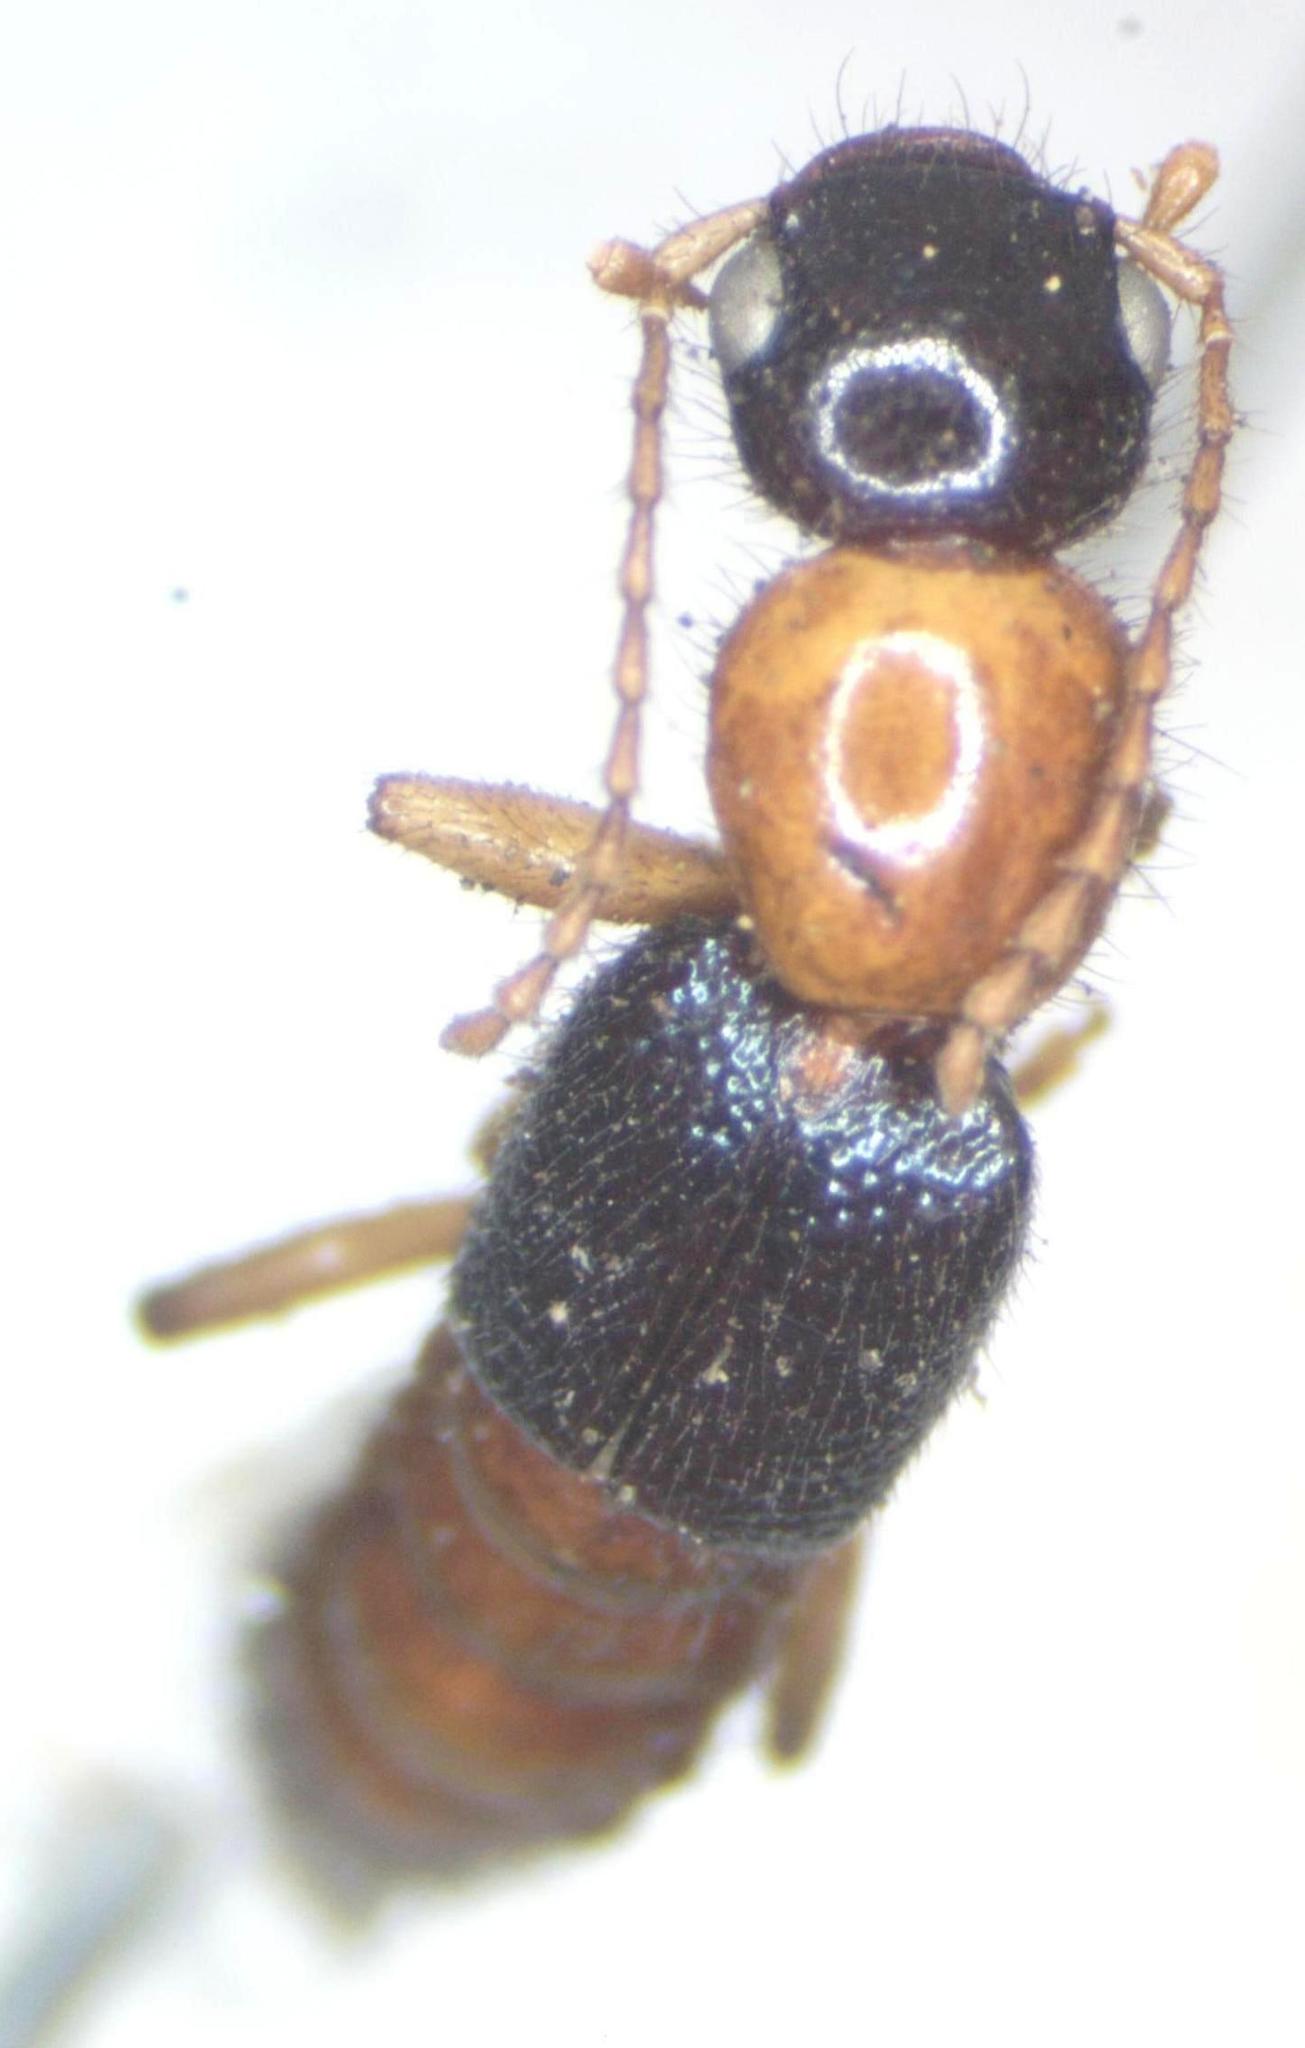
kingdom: Animalia
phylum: Arthropoda
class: Insecta
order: Coleoptera
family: Staphylinidae
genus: Paederus
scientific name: Paederus laetus
